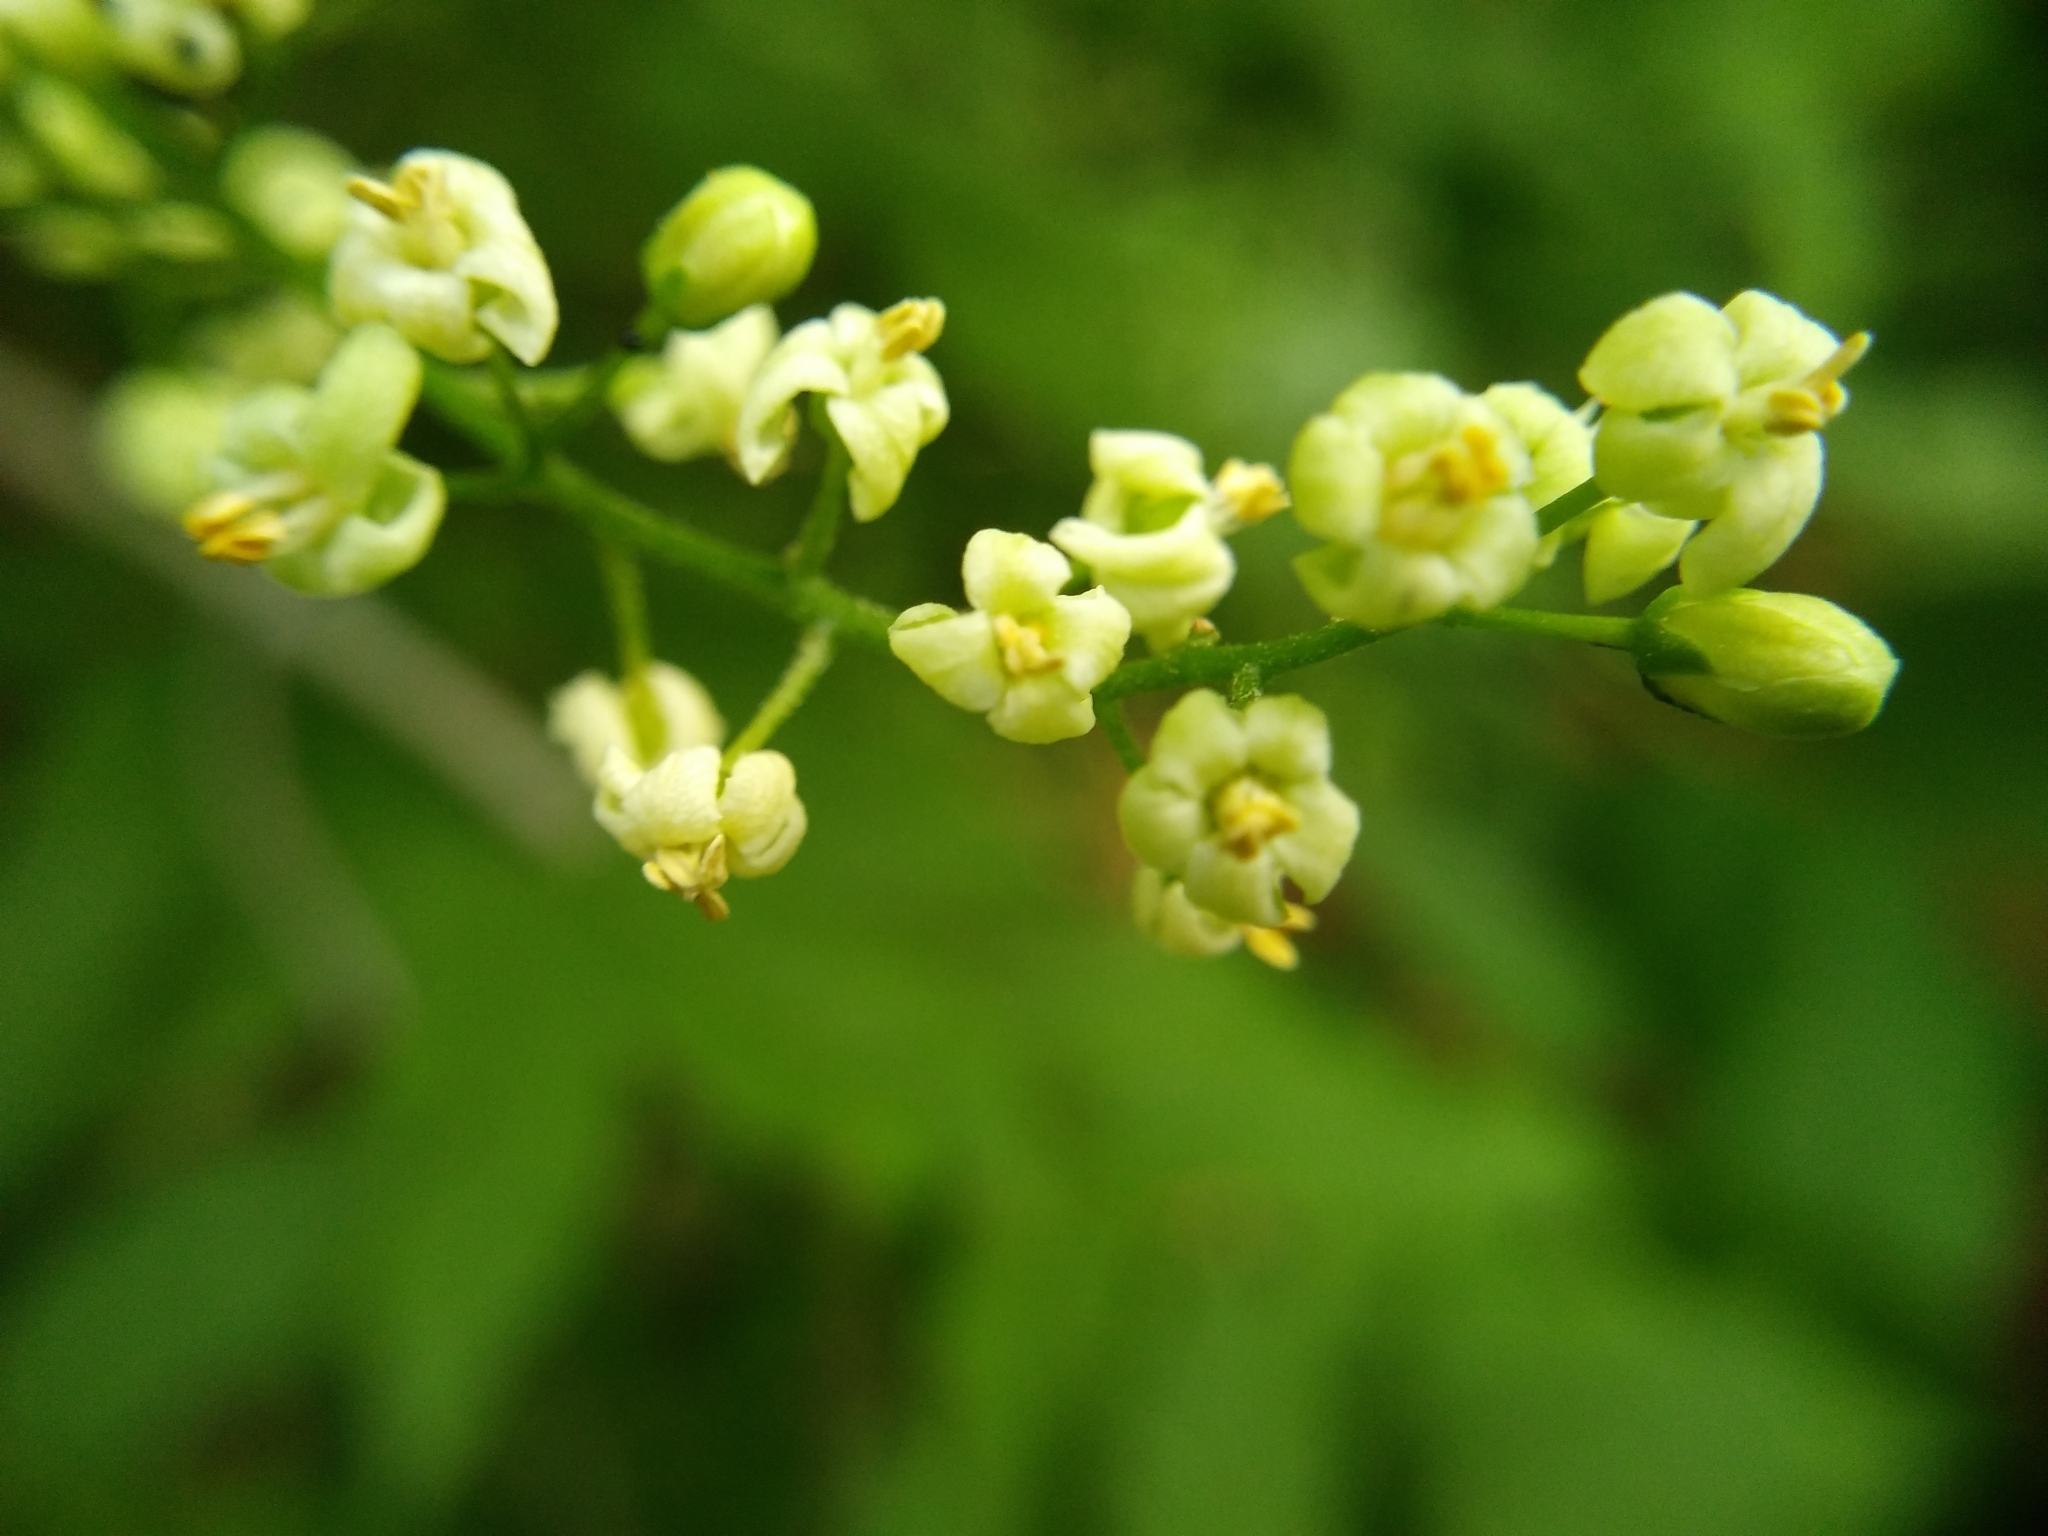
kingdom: Plantae
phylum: Tracheophyta
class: Magnoliopsida
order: Sapindales
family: Anacardiaceae
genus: Toxicodendron
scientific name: Toxicodendron radicans
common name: Poison ivy
